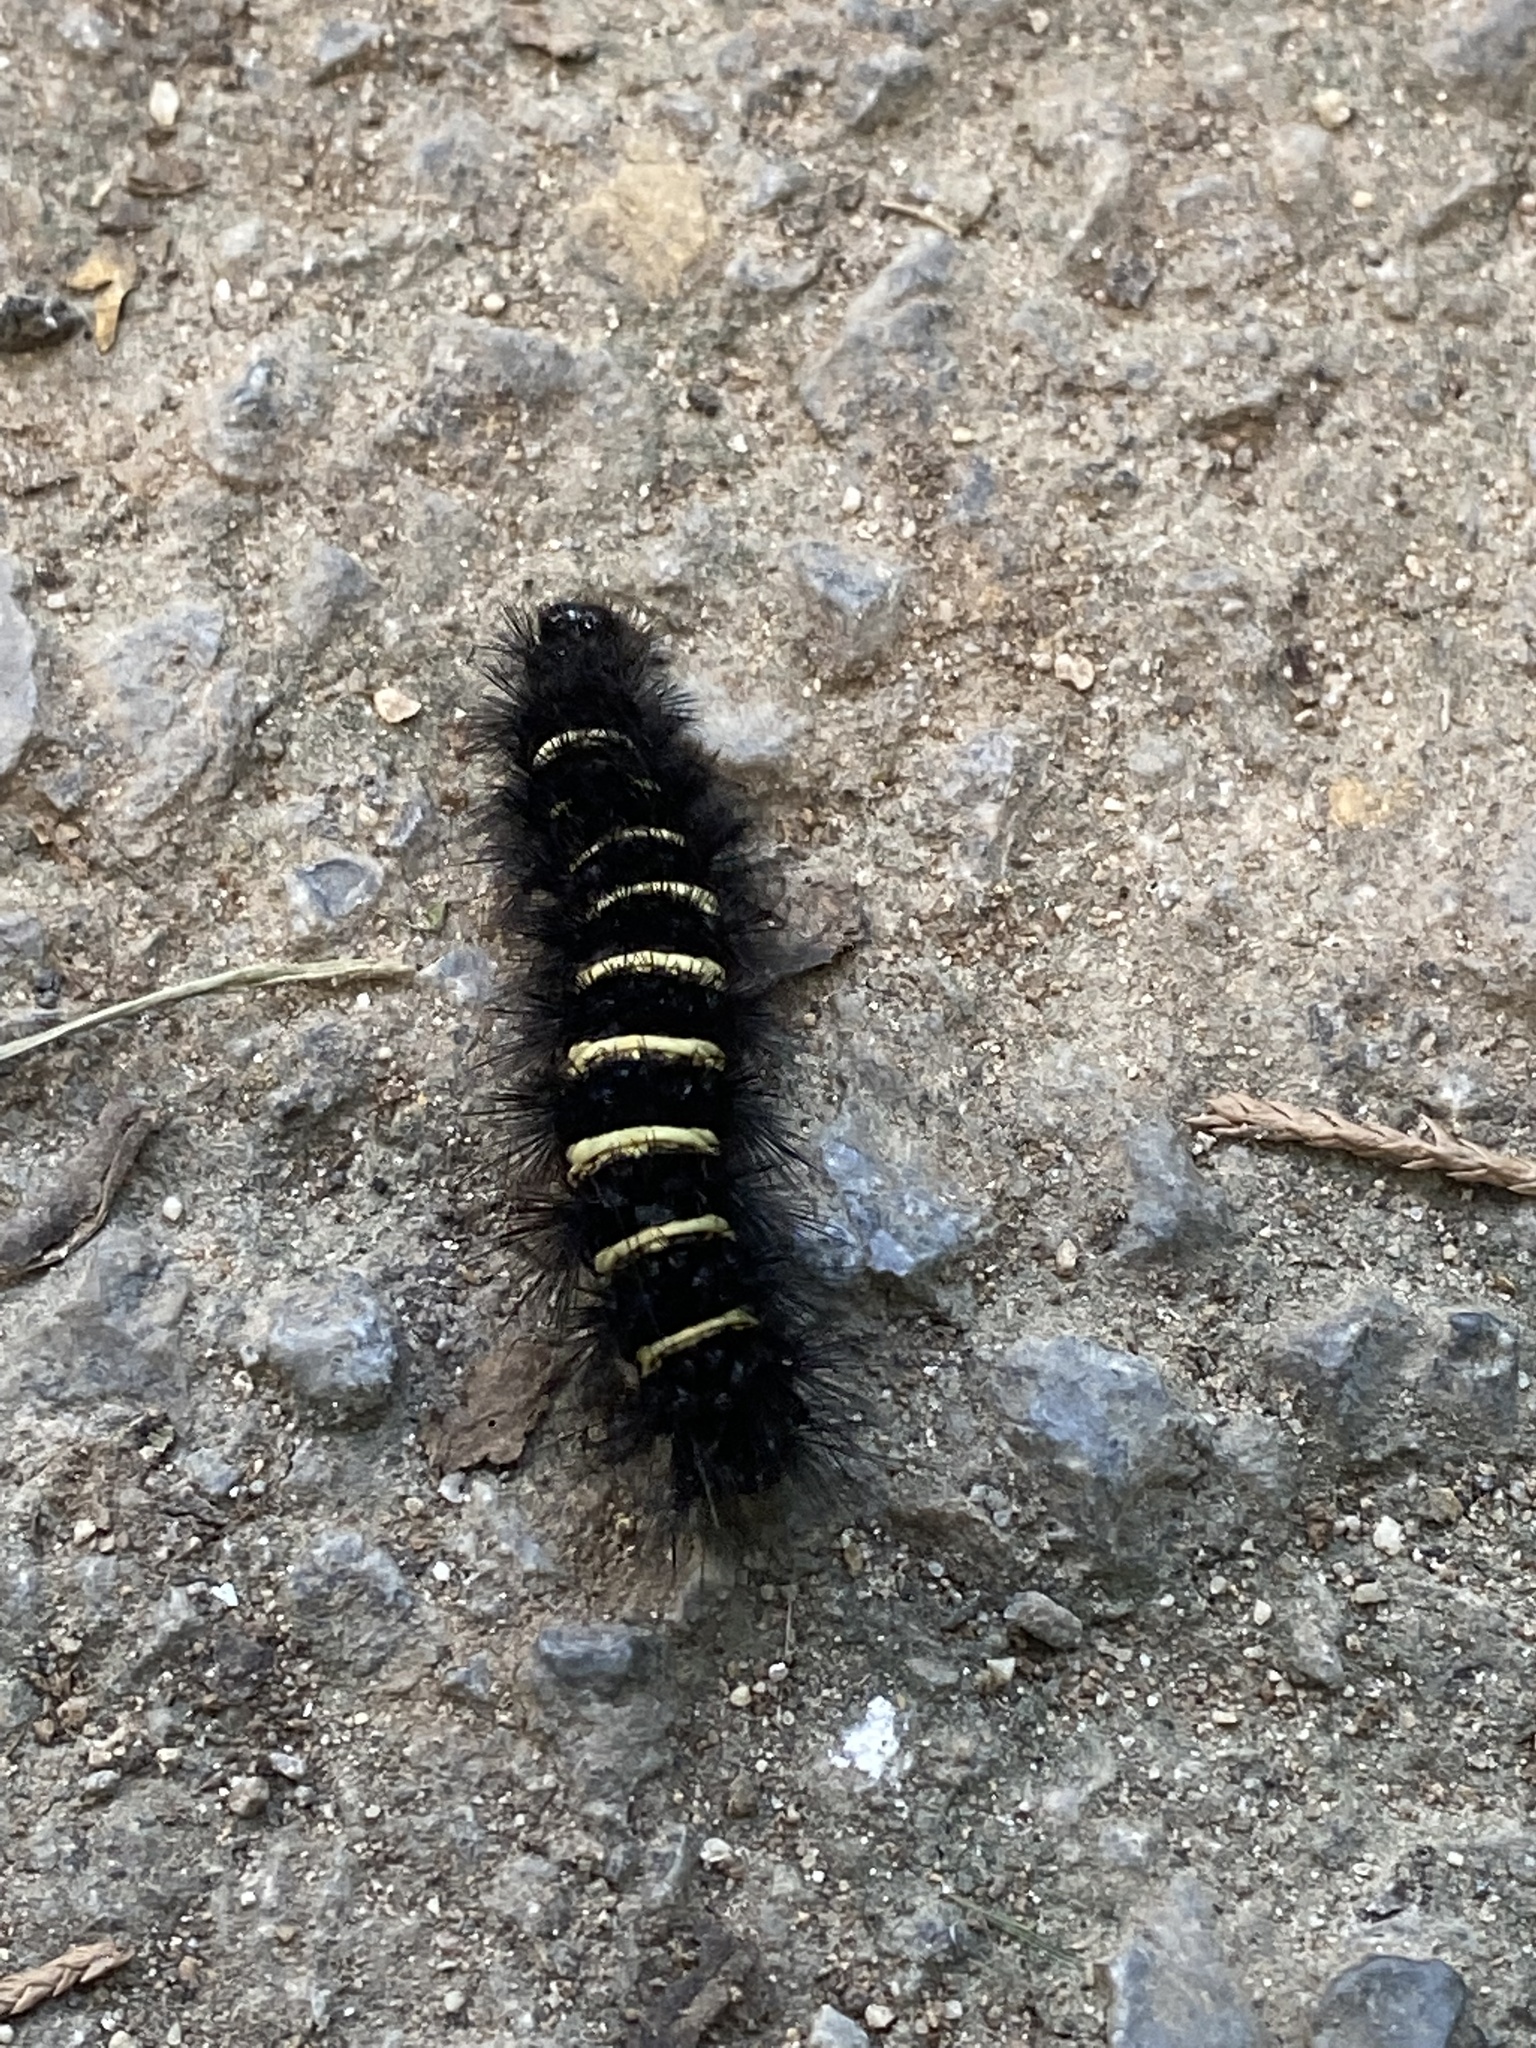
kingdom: Animalia
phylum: Arthropoda
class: Insecta
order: Lepidoptera
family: Erebidae
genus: Spilosoma
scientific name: Spilosoma congrua
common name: Agreeable tiger moth
